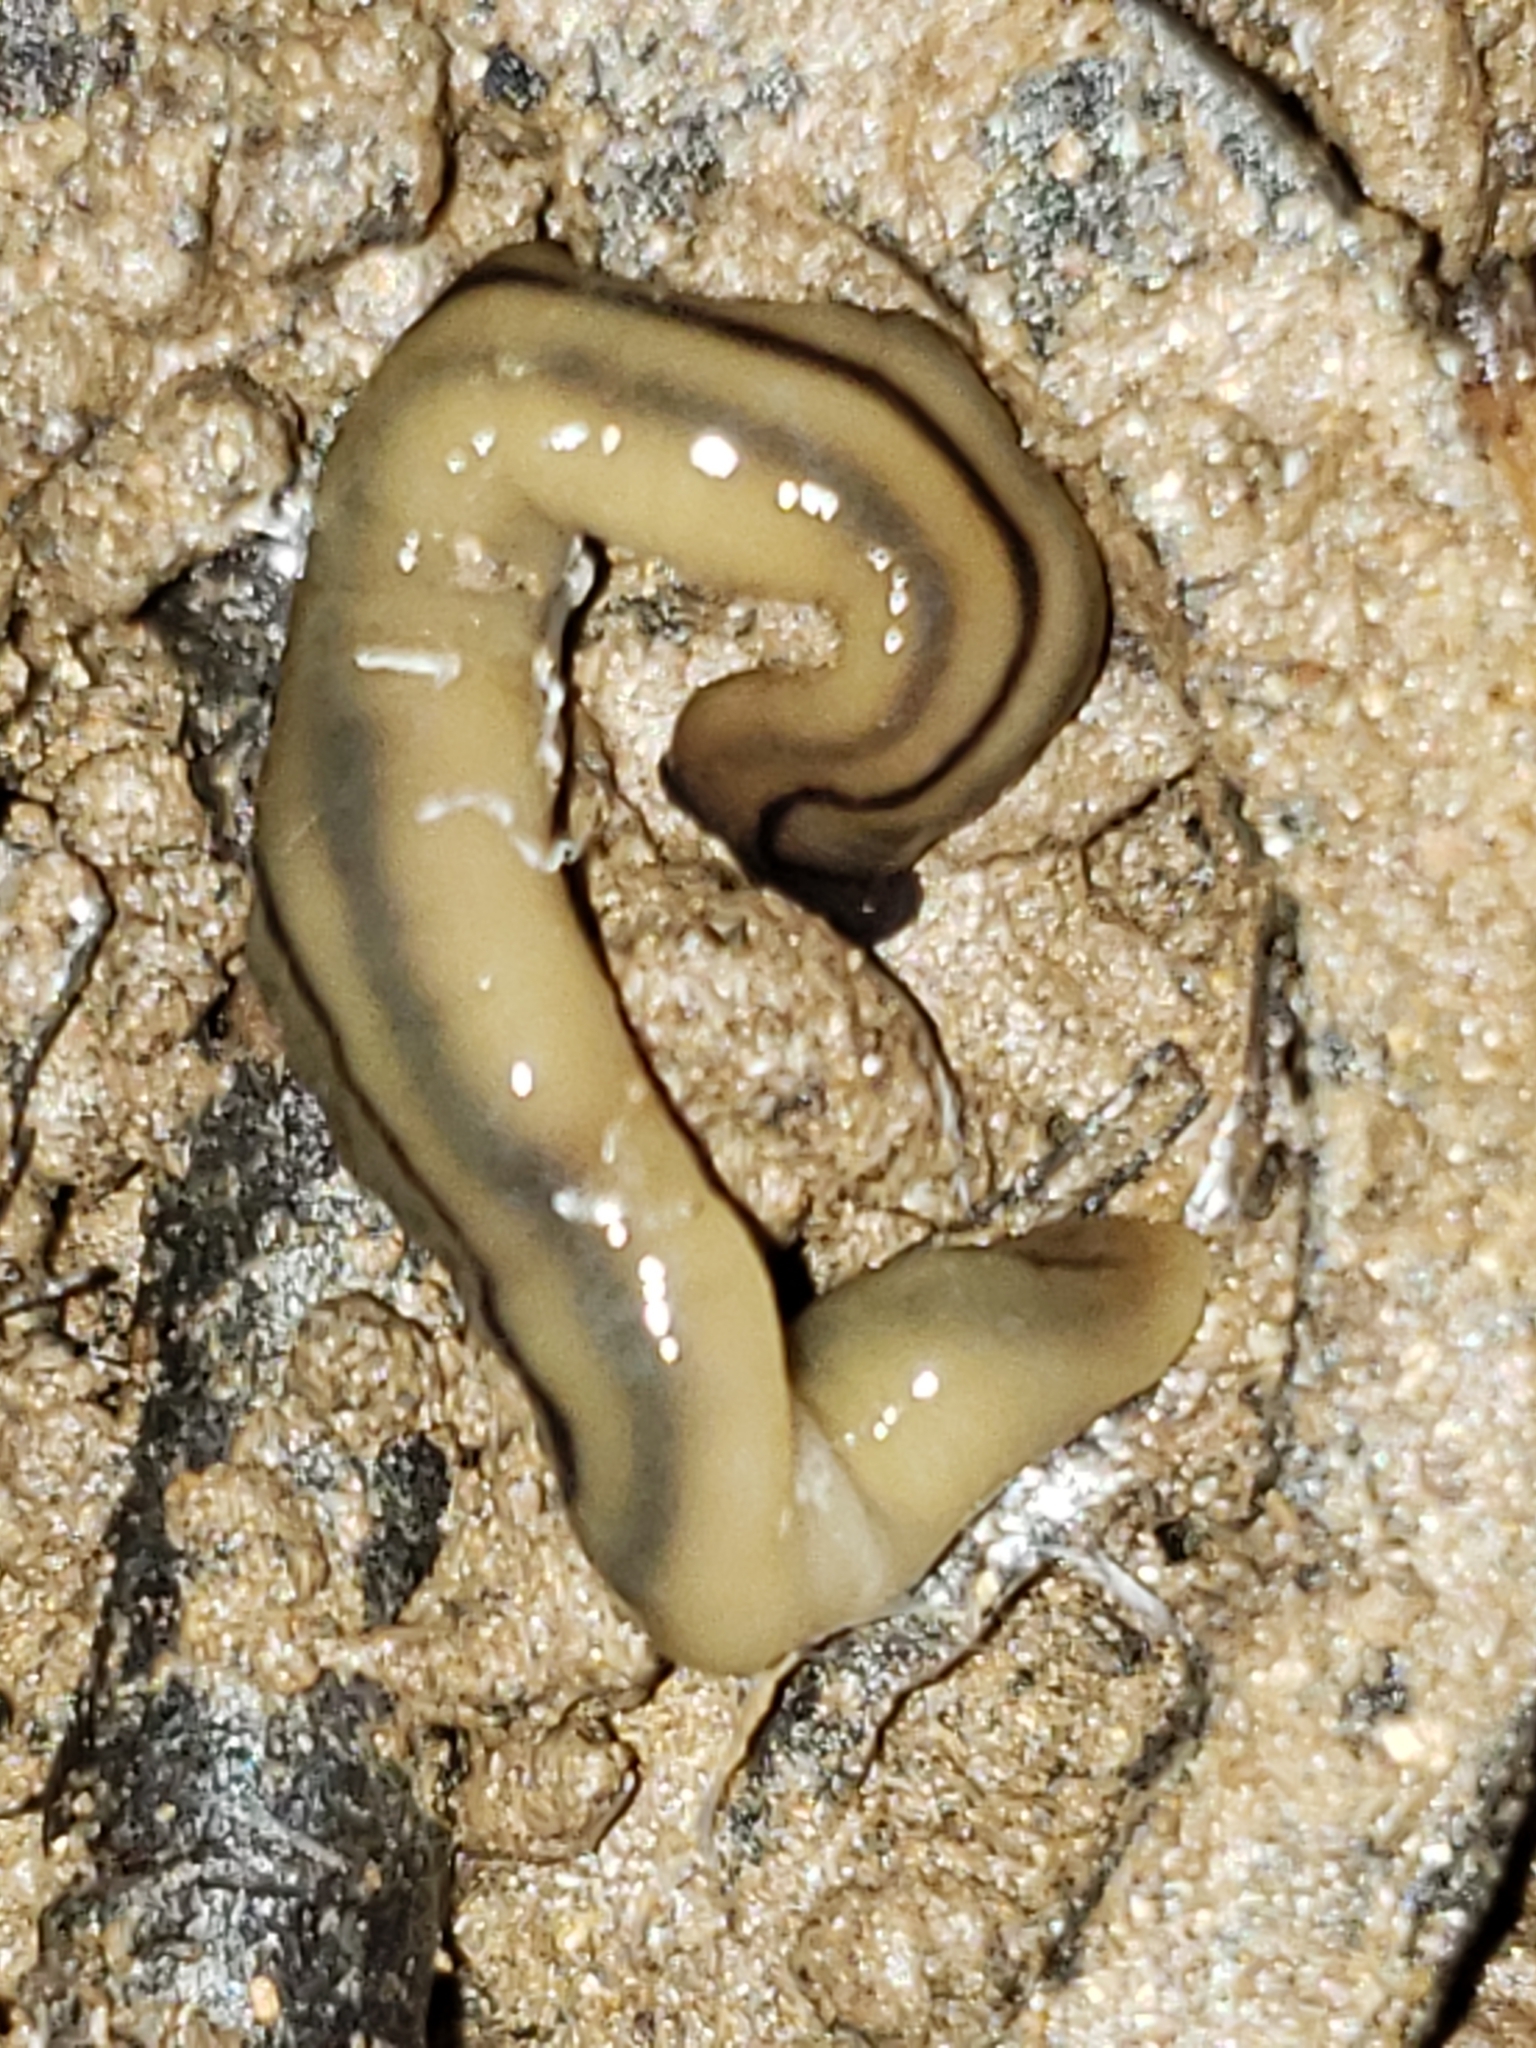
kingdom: Animalia
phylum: Platyhelminthes
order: Tricladida
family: Geoplanidae
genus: Bipalium
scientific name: Bipalium pennsylvanicum
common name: Three-lined land planarian
